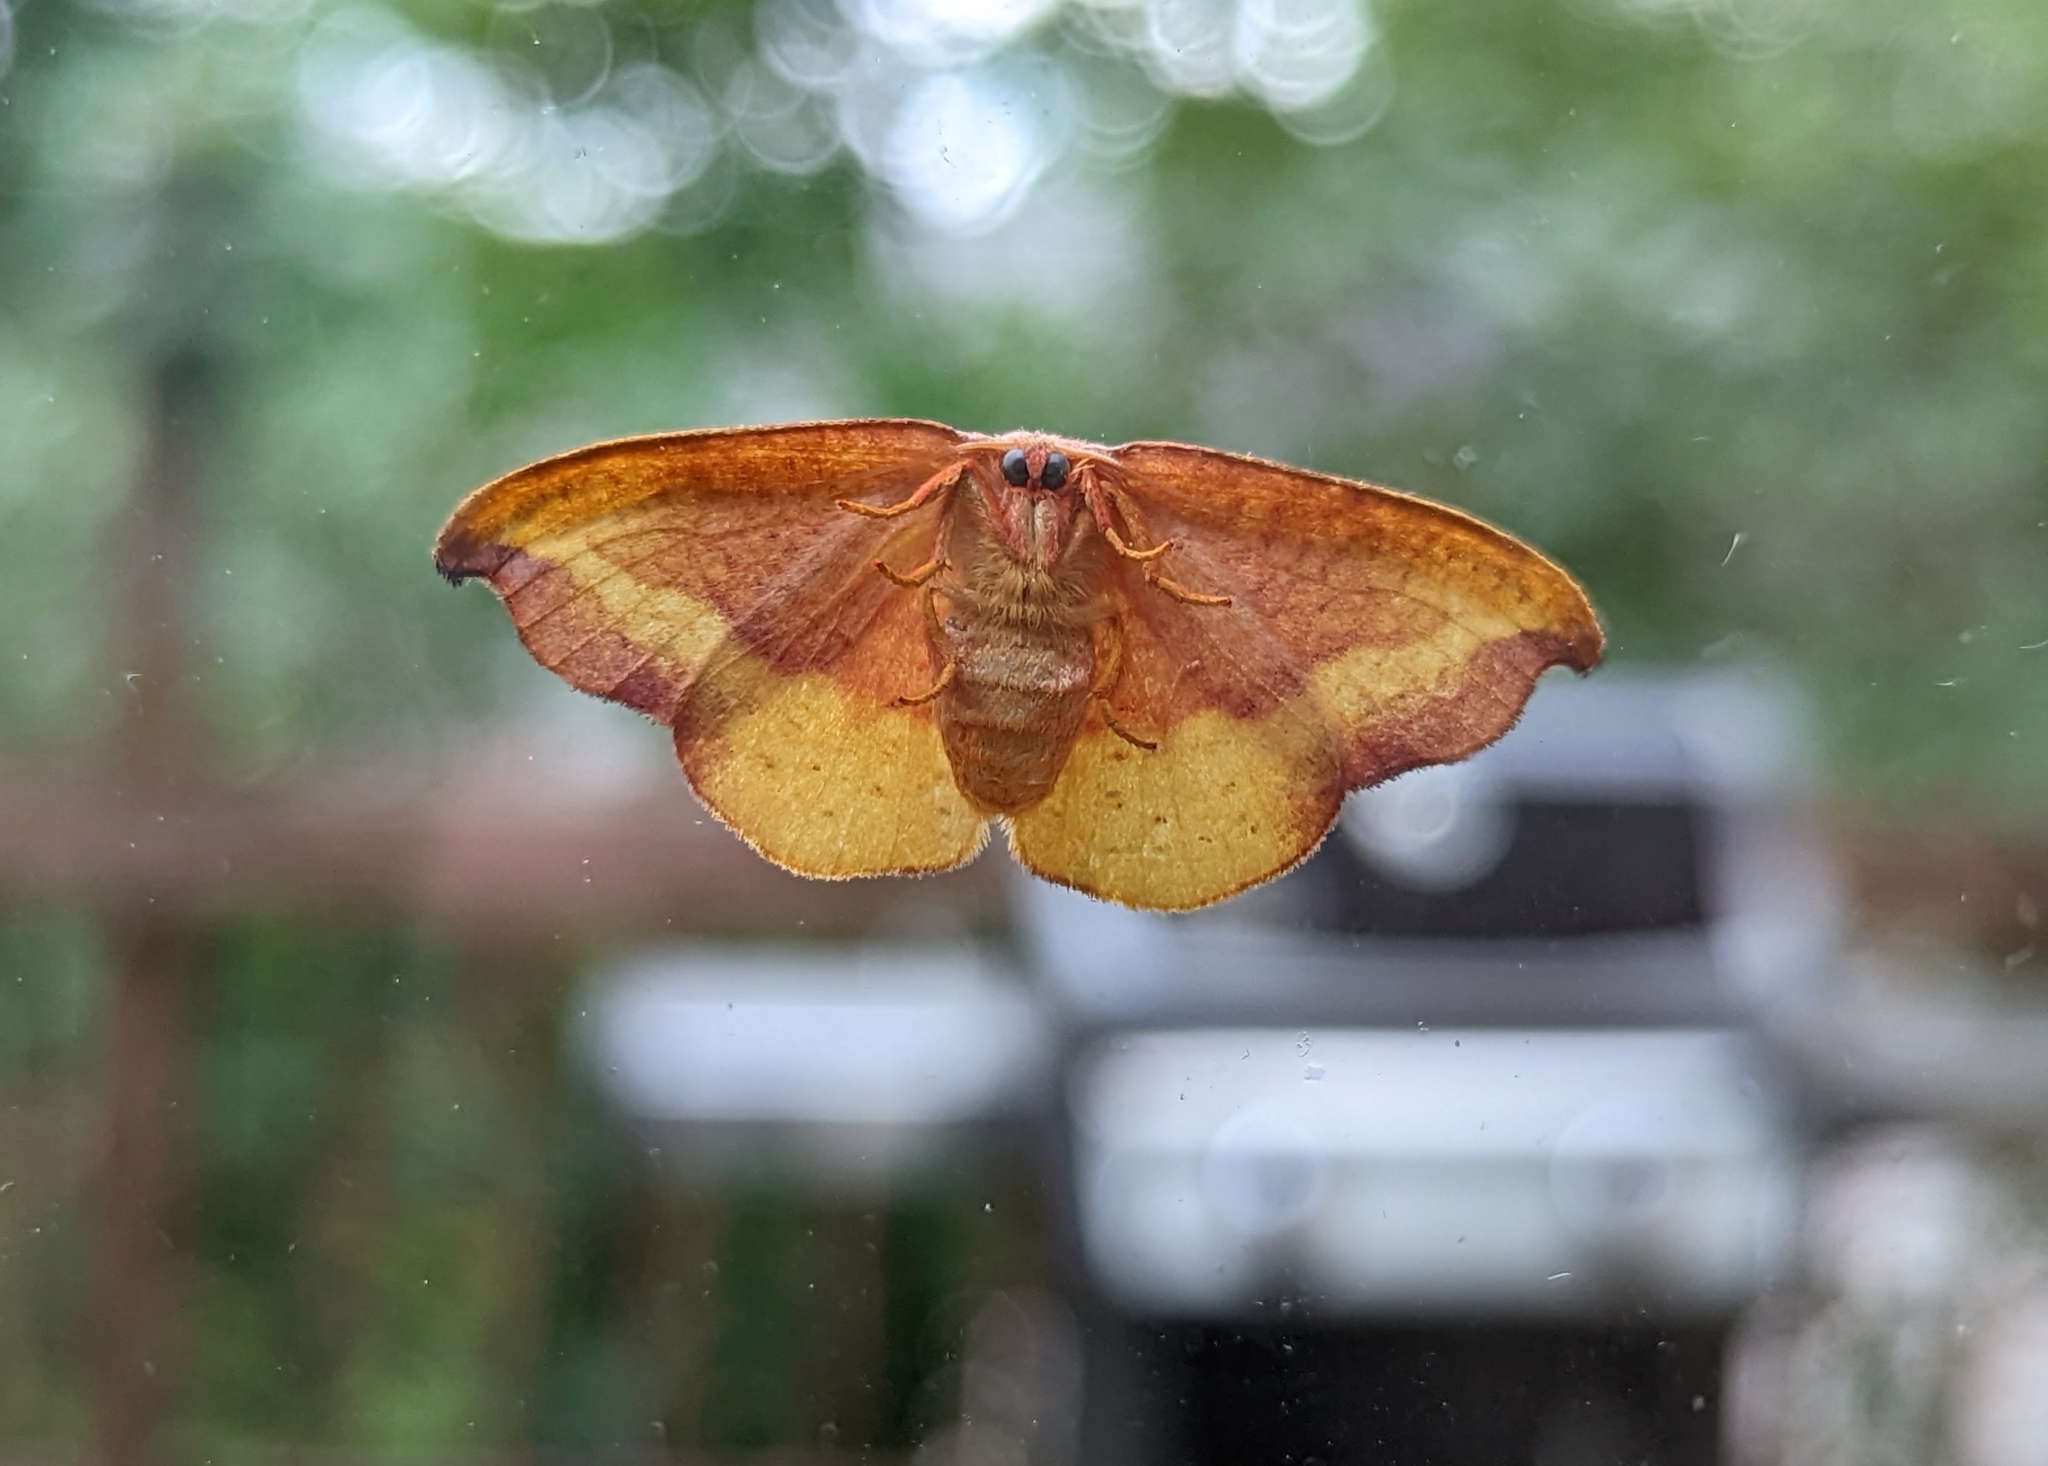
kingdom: Animalia
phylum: Arthropoda
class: Insecta
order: Lepidoptera
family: Drepanidae
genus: Oreta
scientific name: Oreta rosea
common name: Rose hooktip
